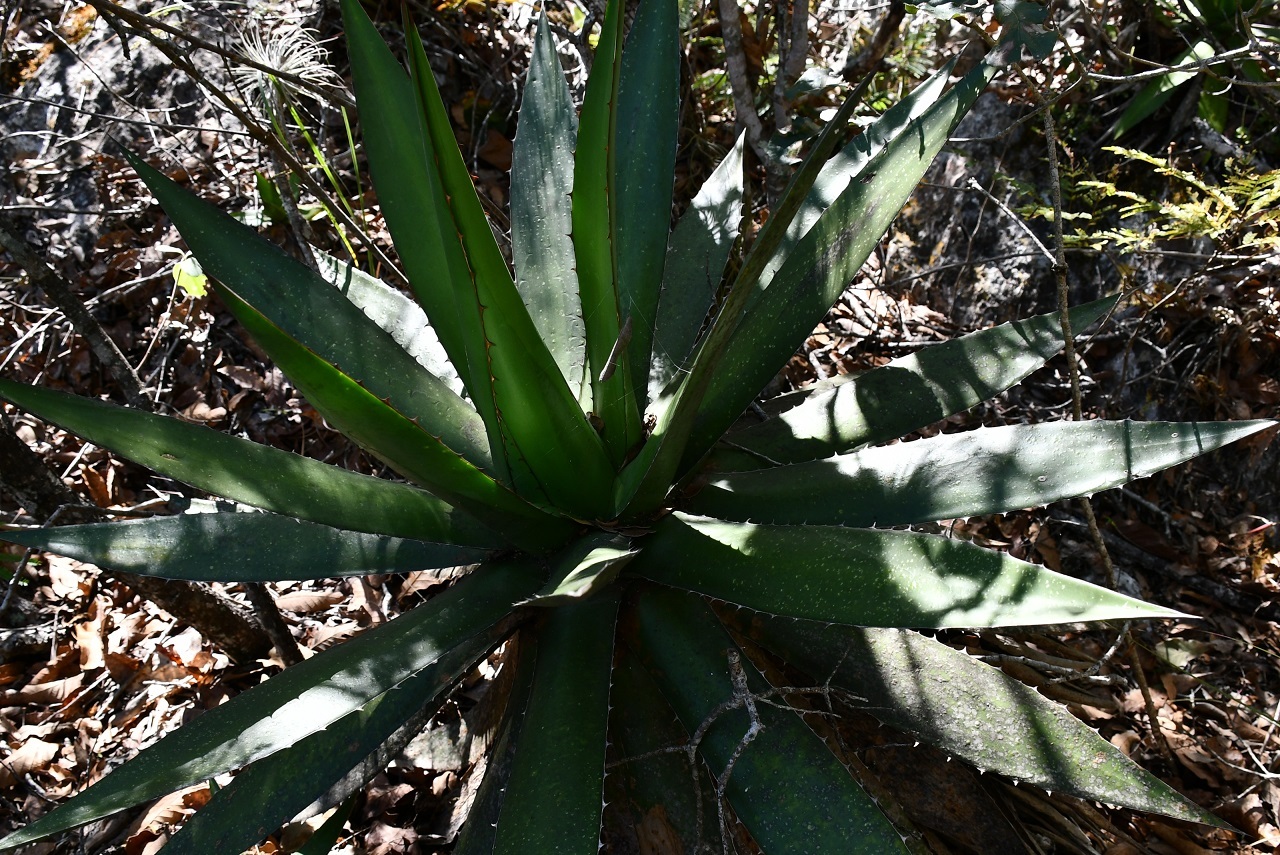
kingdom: Plantae
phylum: Tracheophyta
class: Liliopsida
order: Asparagales
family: Asparagaceae
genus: Agave
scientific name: Agave ghiesbreghtii
